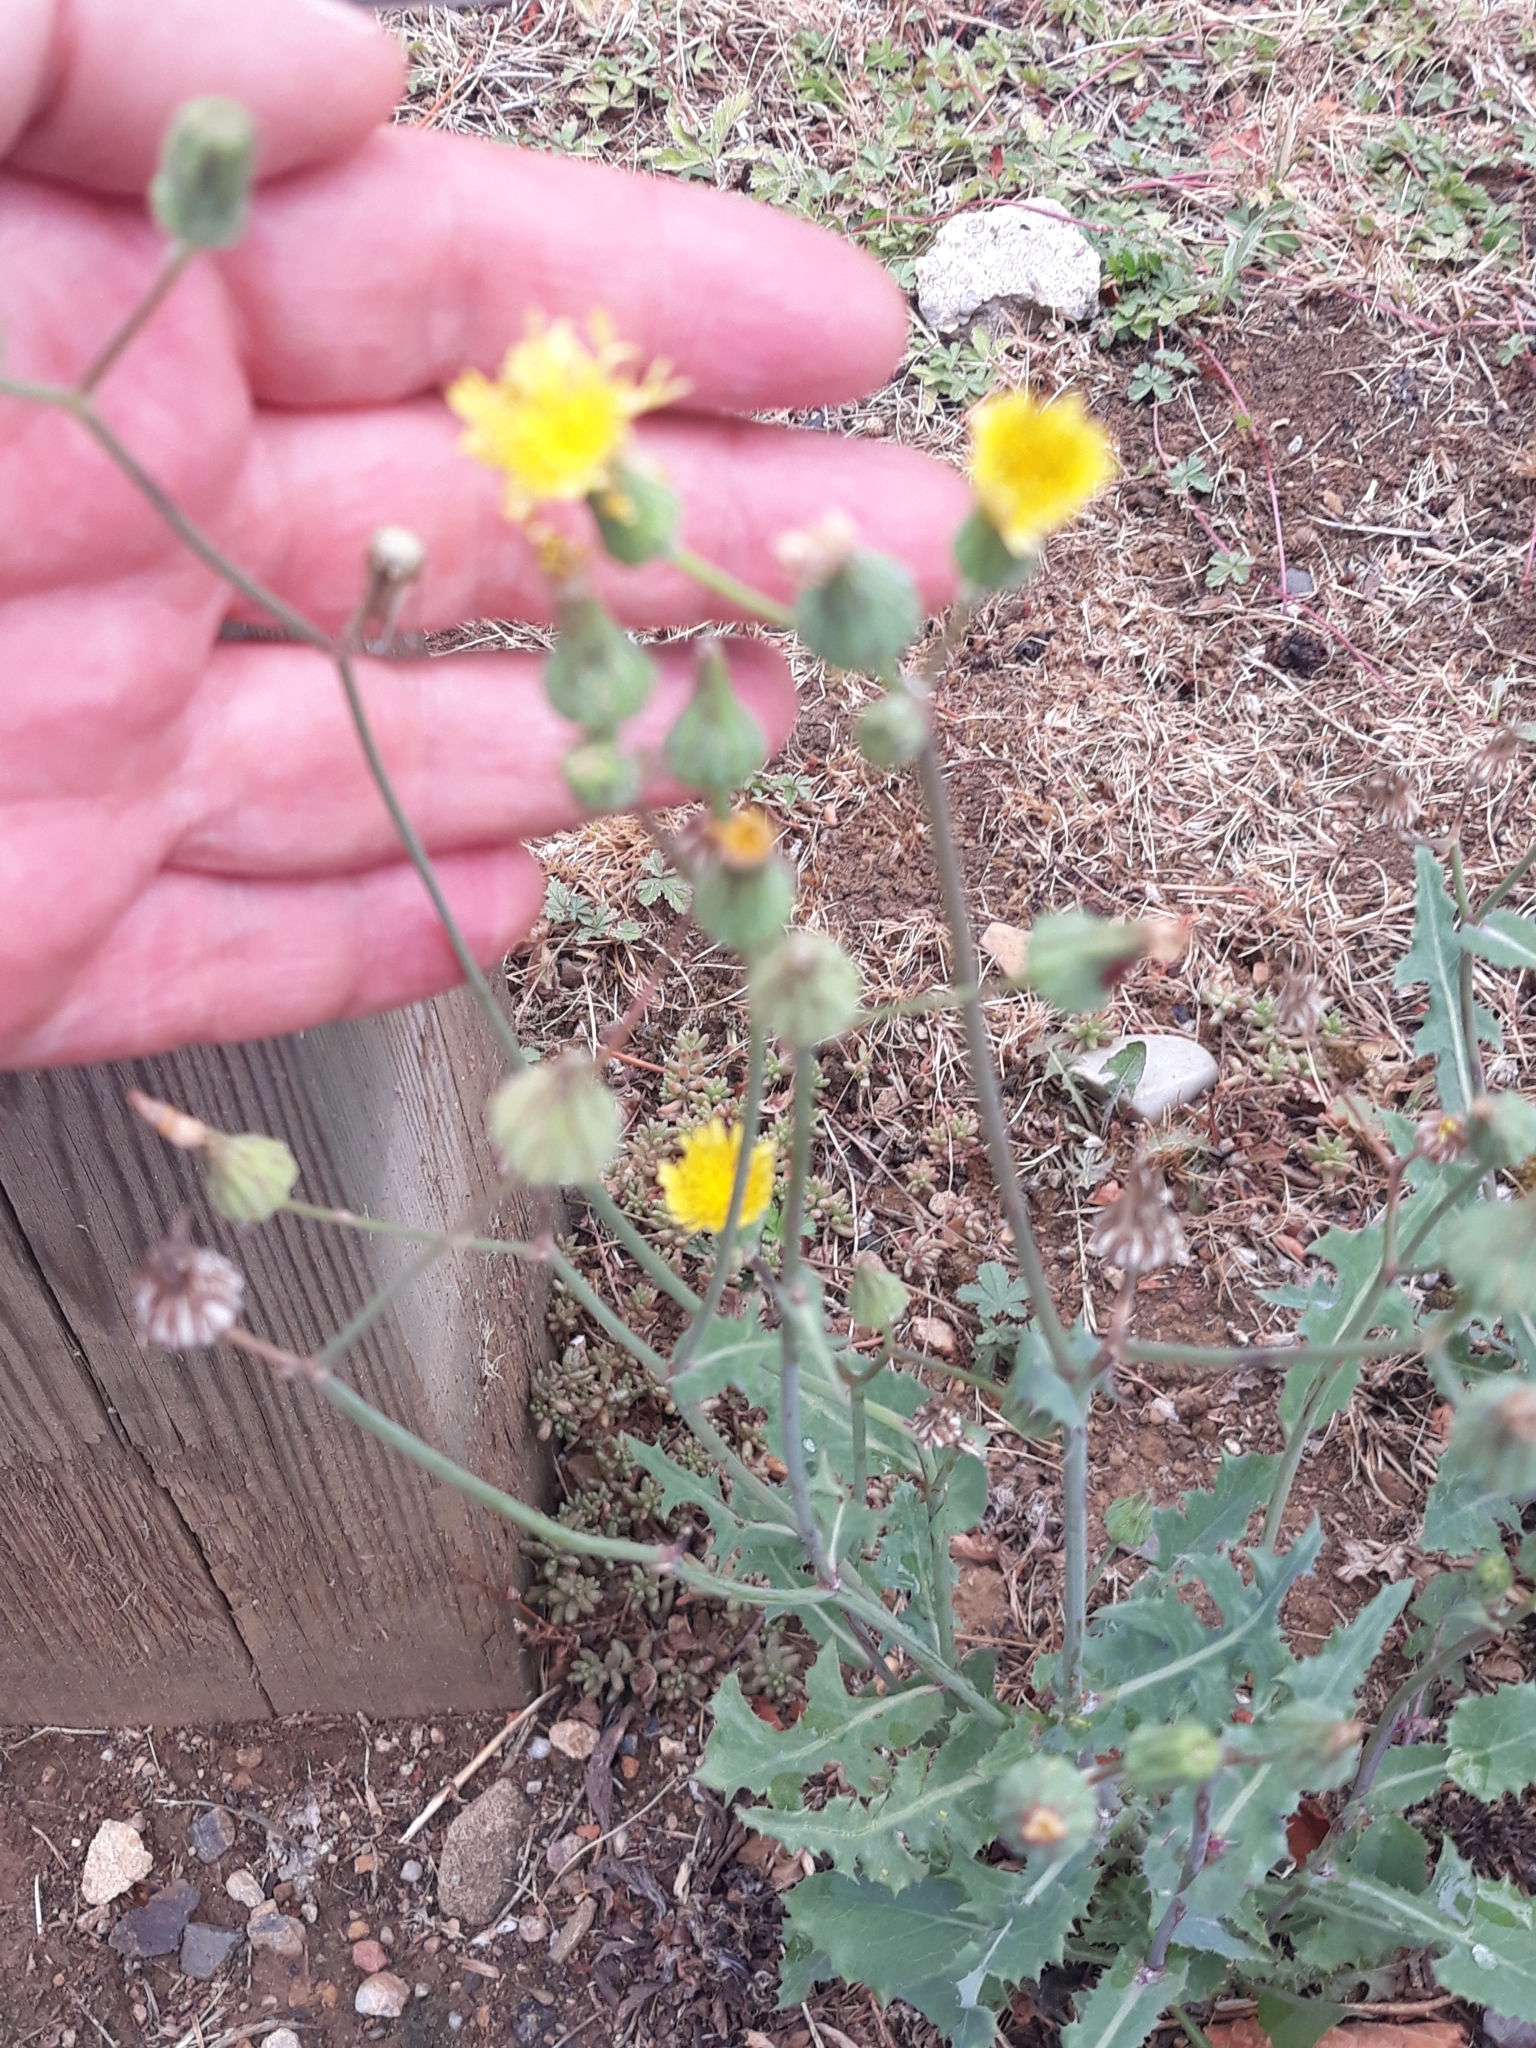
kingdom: Plantae
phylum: Tracheophyta
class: Magnoliopsida
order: Asterales
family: Asteraceae
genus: Sonchus
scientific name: Sonchus oleraceus
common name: Common sowthistle
